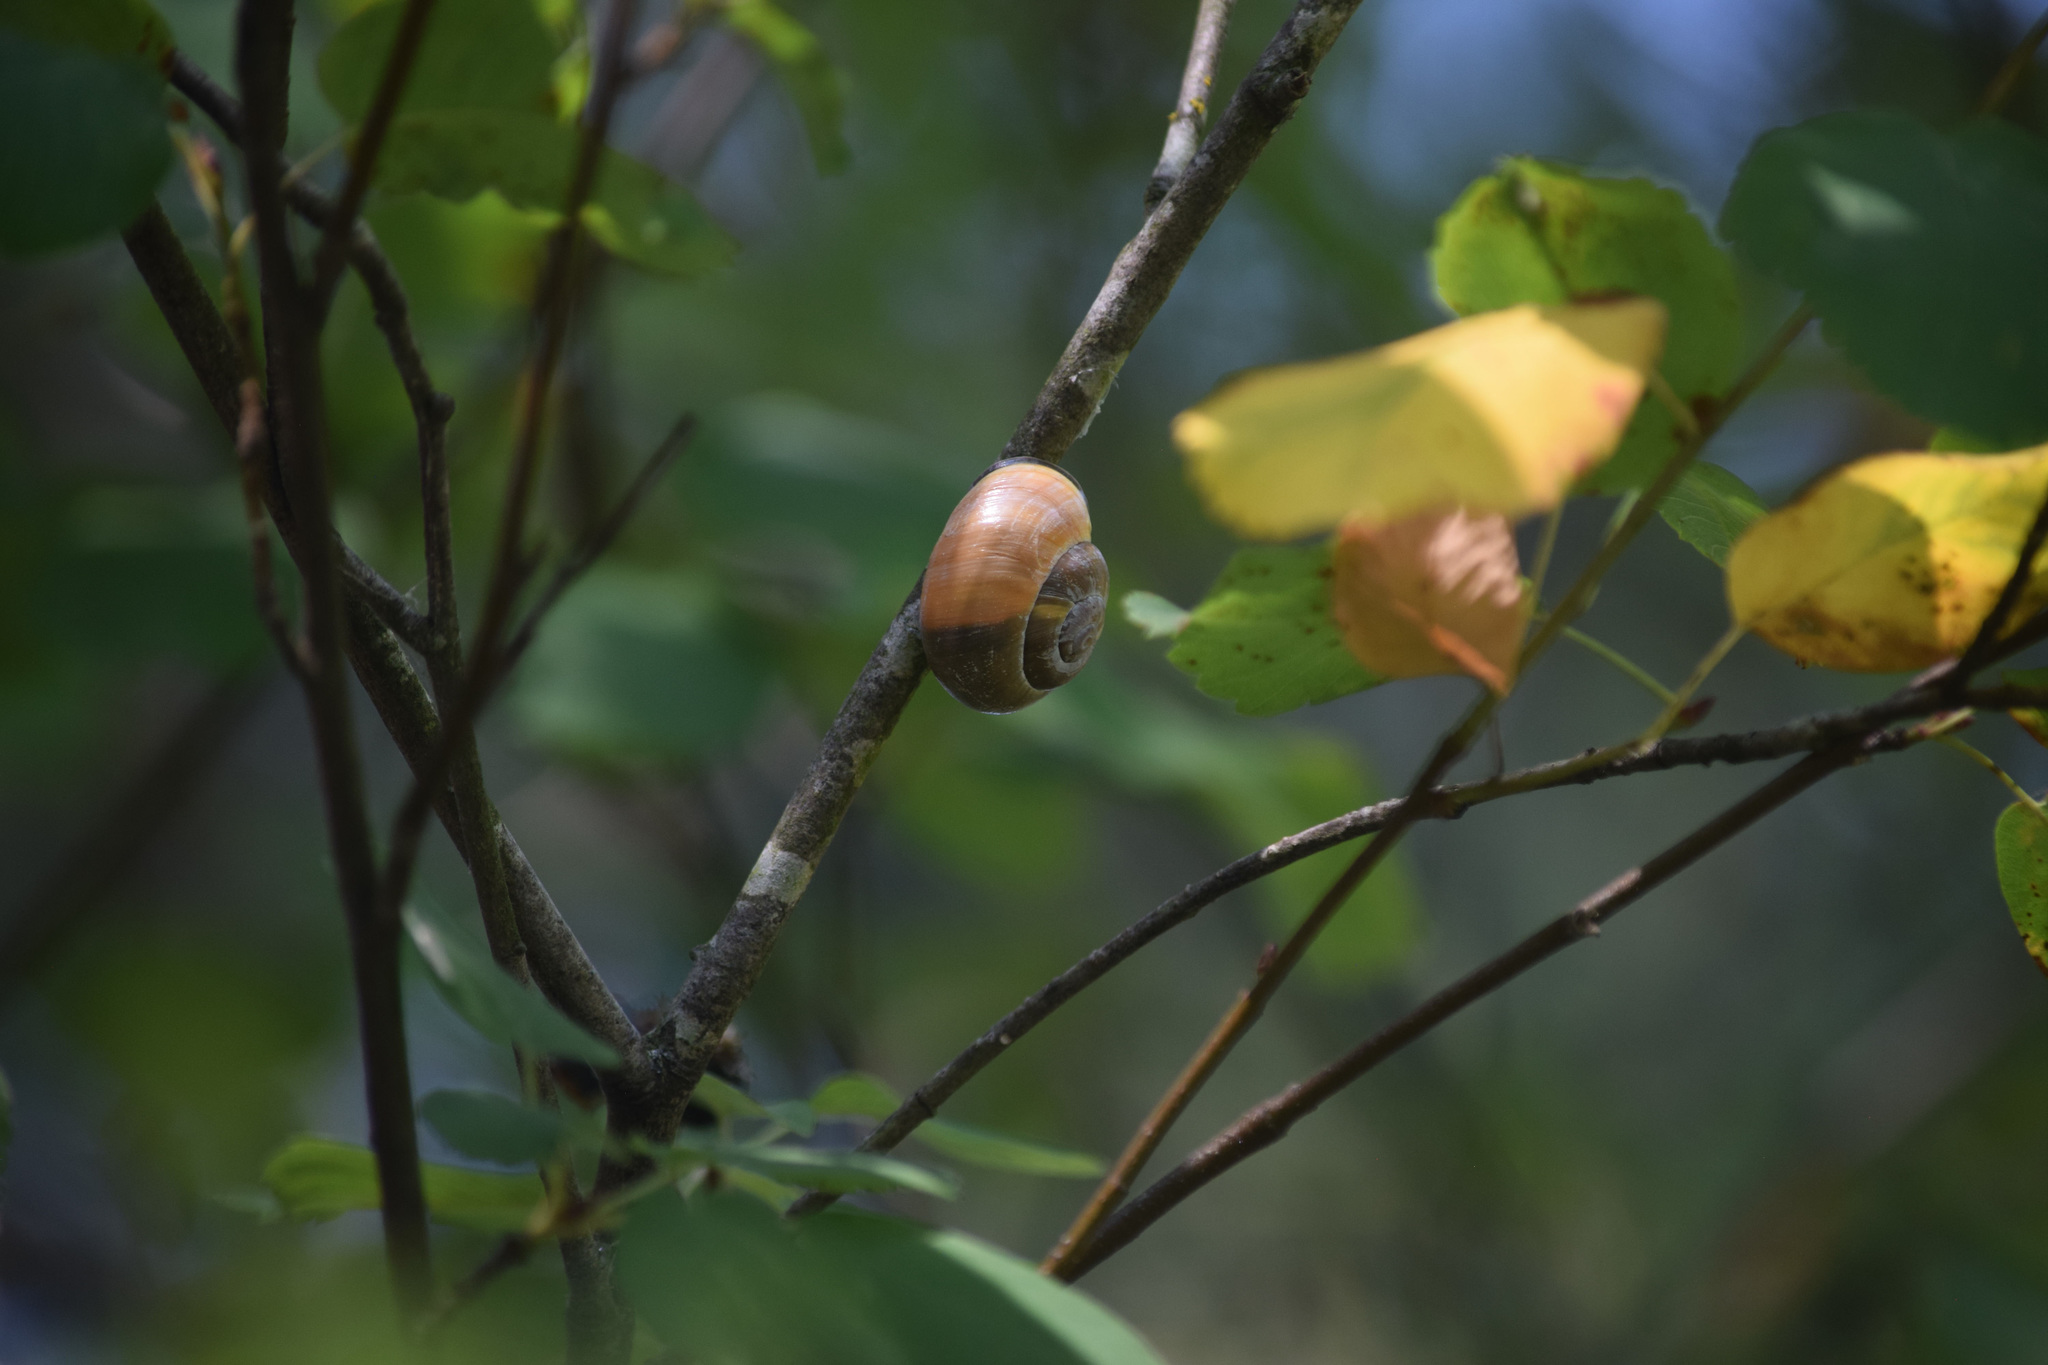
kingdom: Plantae
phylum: Tracheophyta
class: Magnoliopsida
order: Rosales
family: Rosaceae
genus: Amelanchier
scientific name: Amelanchier alnifolia
